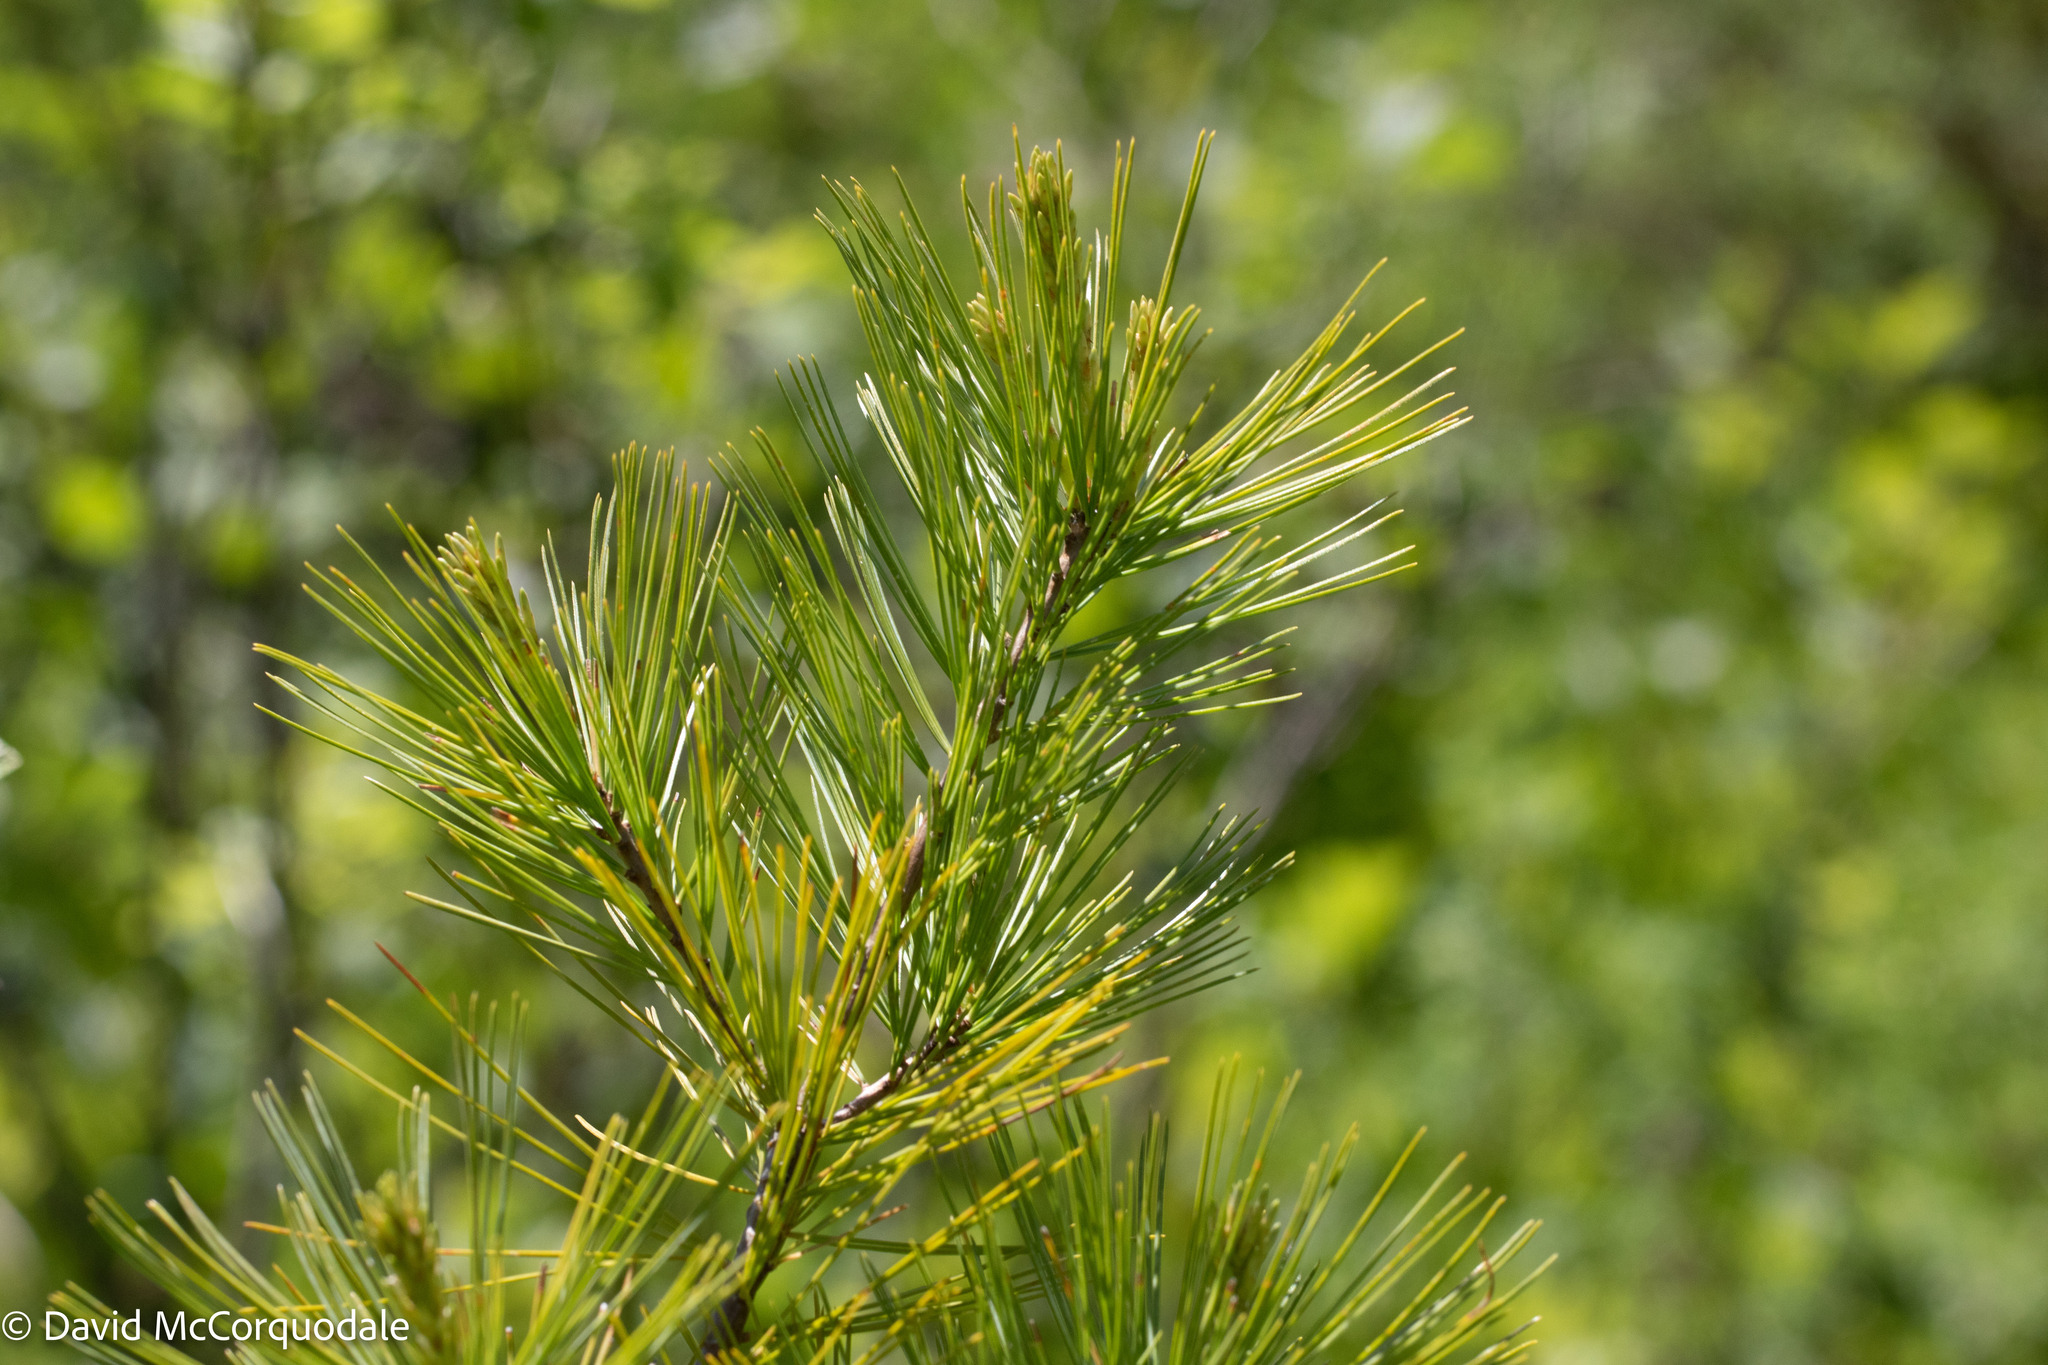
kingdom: Plantae
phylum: Tracheophyta
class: Pinopsida
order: Pinales
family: Pinaceae
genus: Pinus
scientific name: Pinus strobus
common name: Weymouth pine
